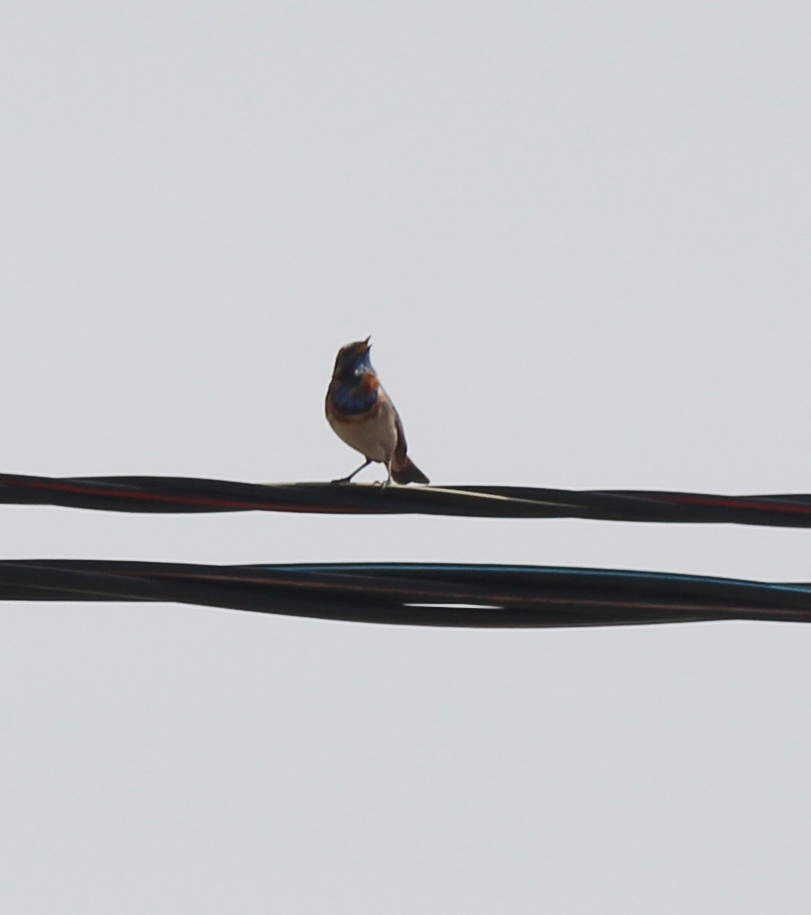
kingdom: Animalia
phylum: Chordata
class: Aves
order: Passeriformes
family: Muscicapidae
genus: Luscinia
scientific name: Luscinia svecica
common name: Bluethroat
